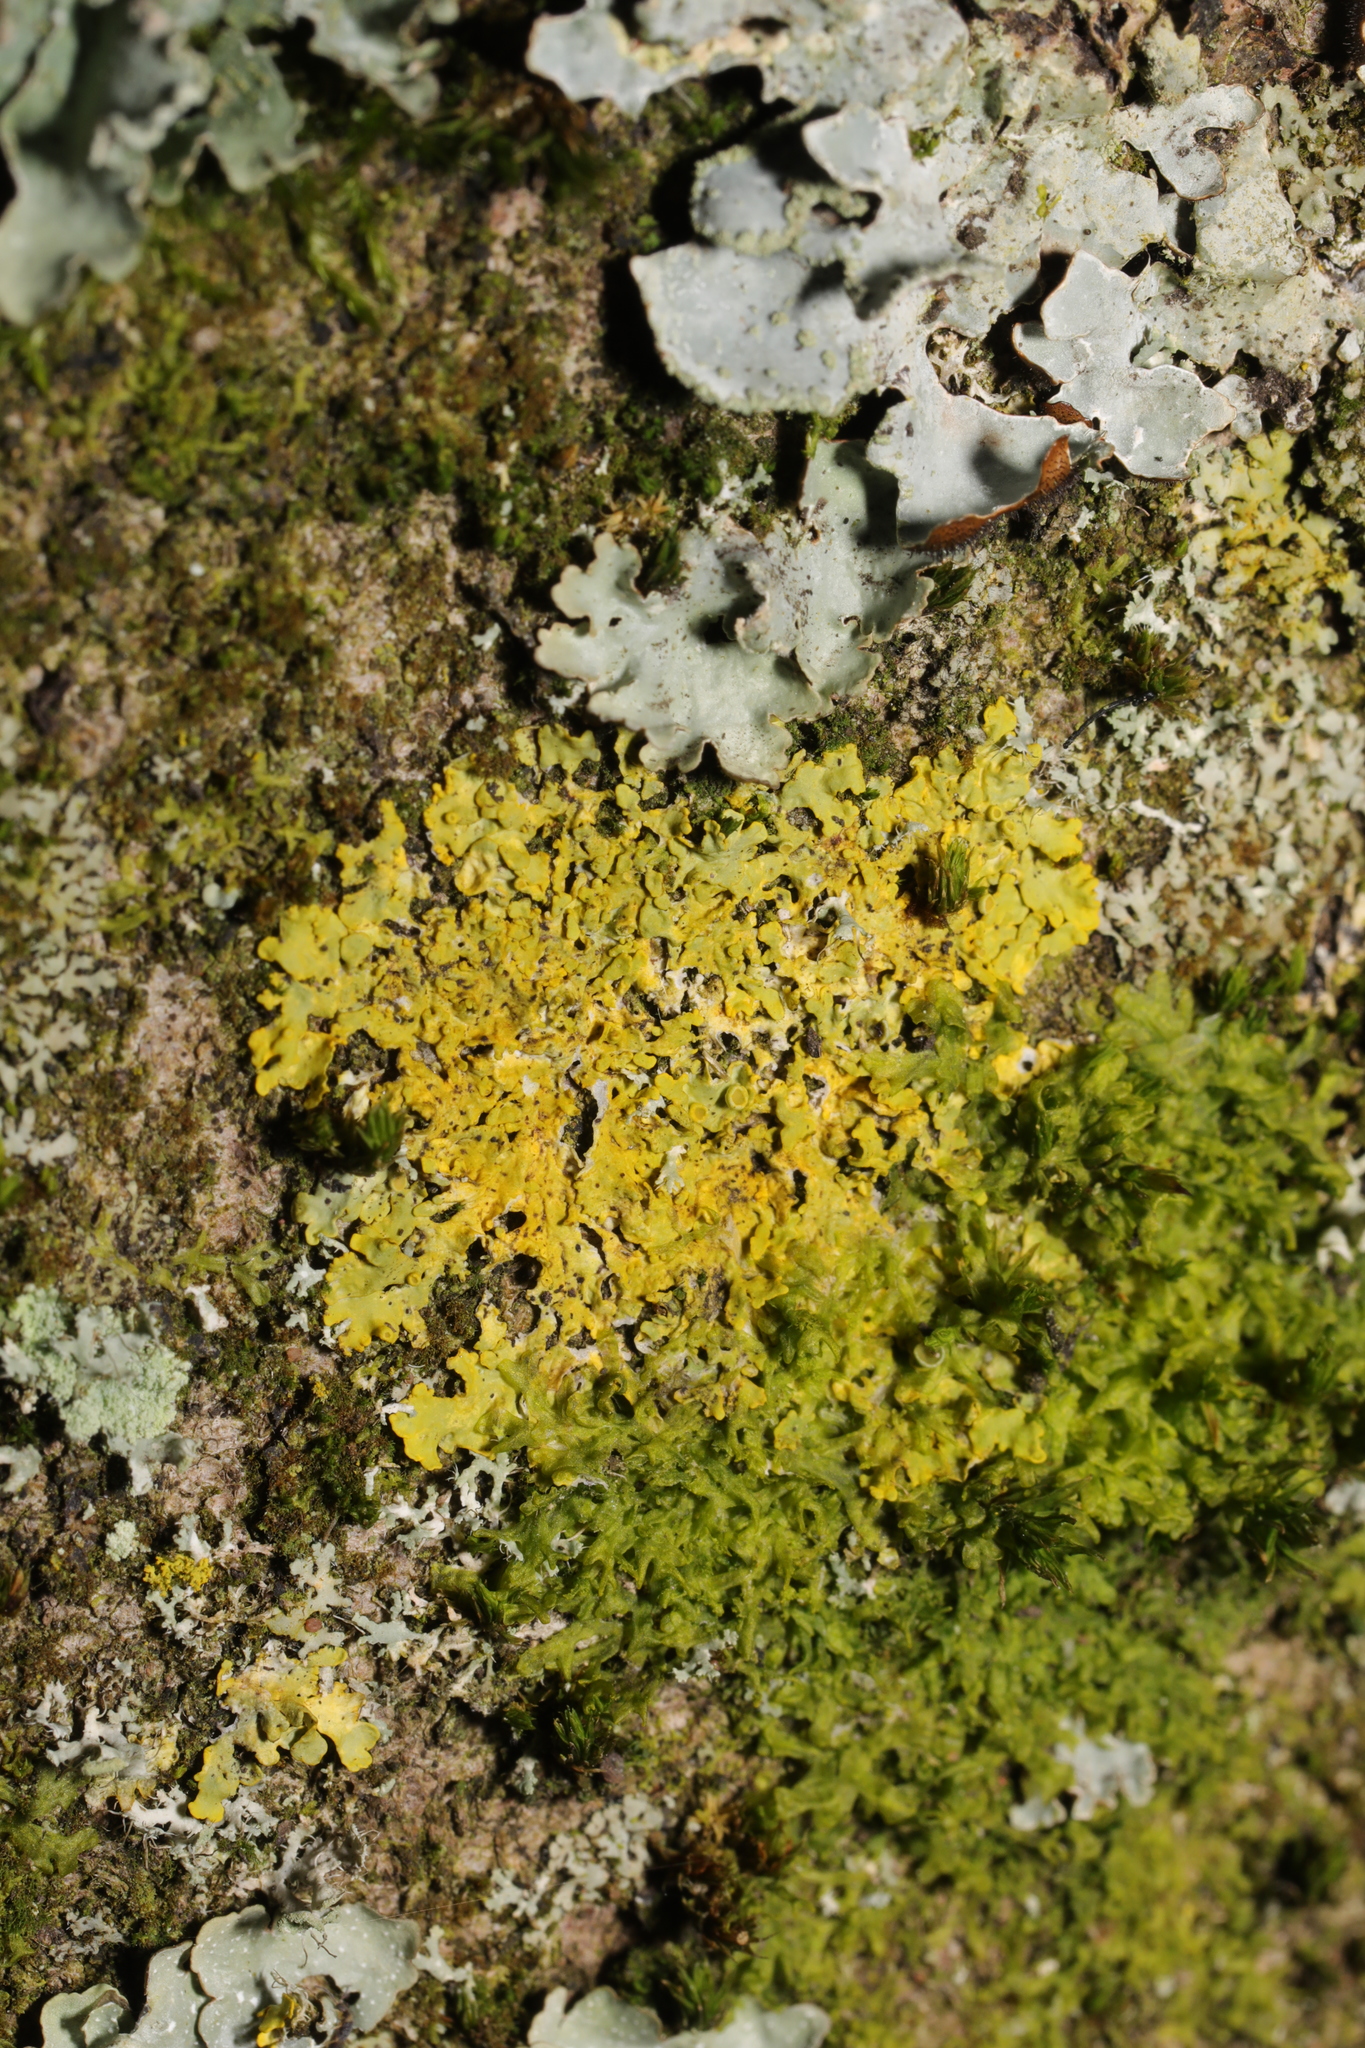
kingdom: Fungi
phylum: Ascomycota
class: Lecanoromycetes
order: Teloschistales
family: Teloschistaceae
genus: Xanthoria
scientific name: Xanthoria parietina
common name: Common orange lichen
